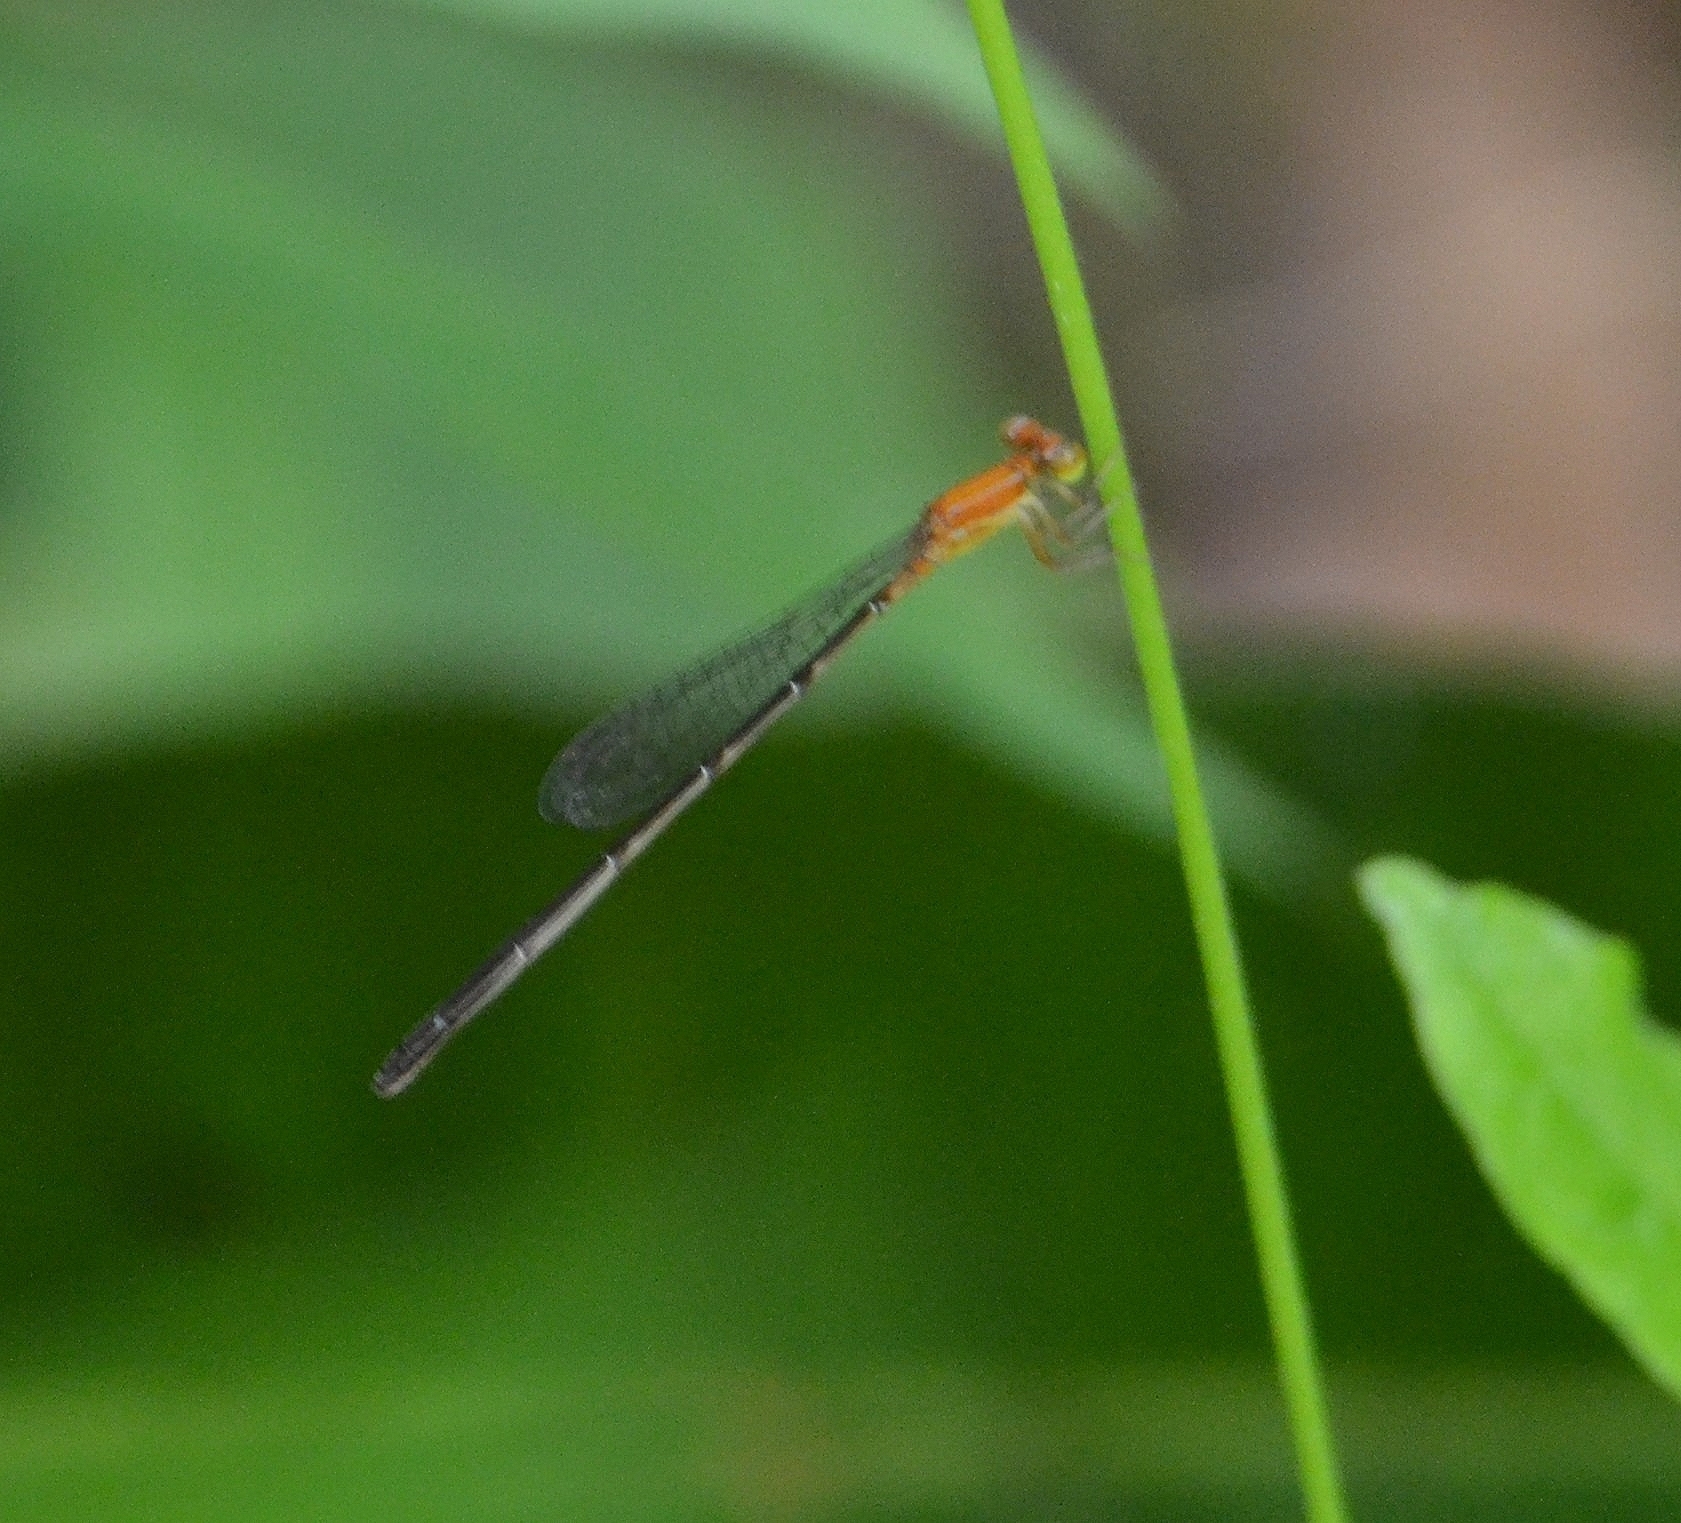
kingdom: Animalia
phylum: Arthropoda
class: Insecta
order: Odonata
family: Coenagrionidae
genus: Mortonagrion
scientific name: Mortonagrion varralli
